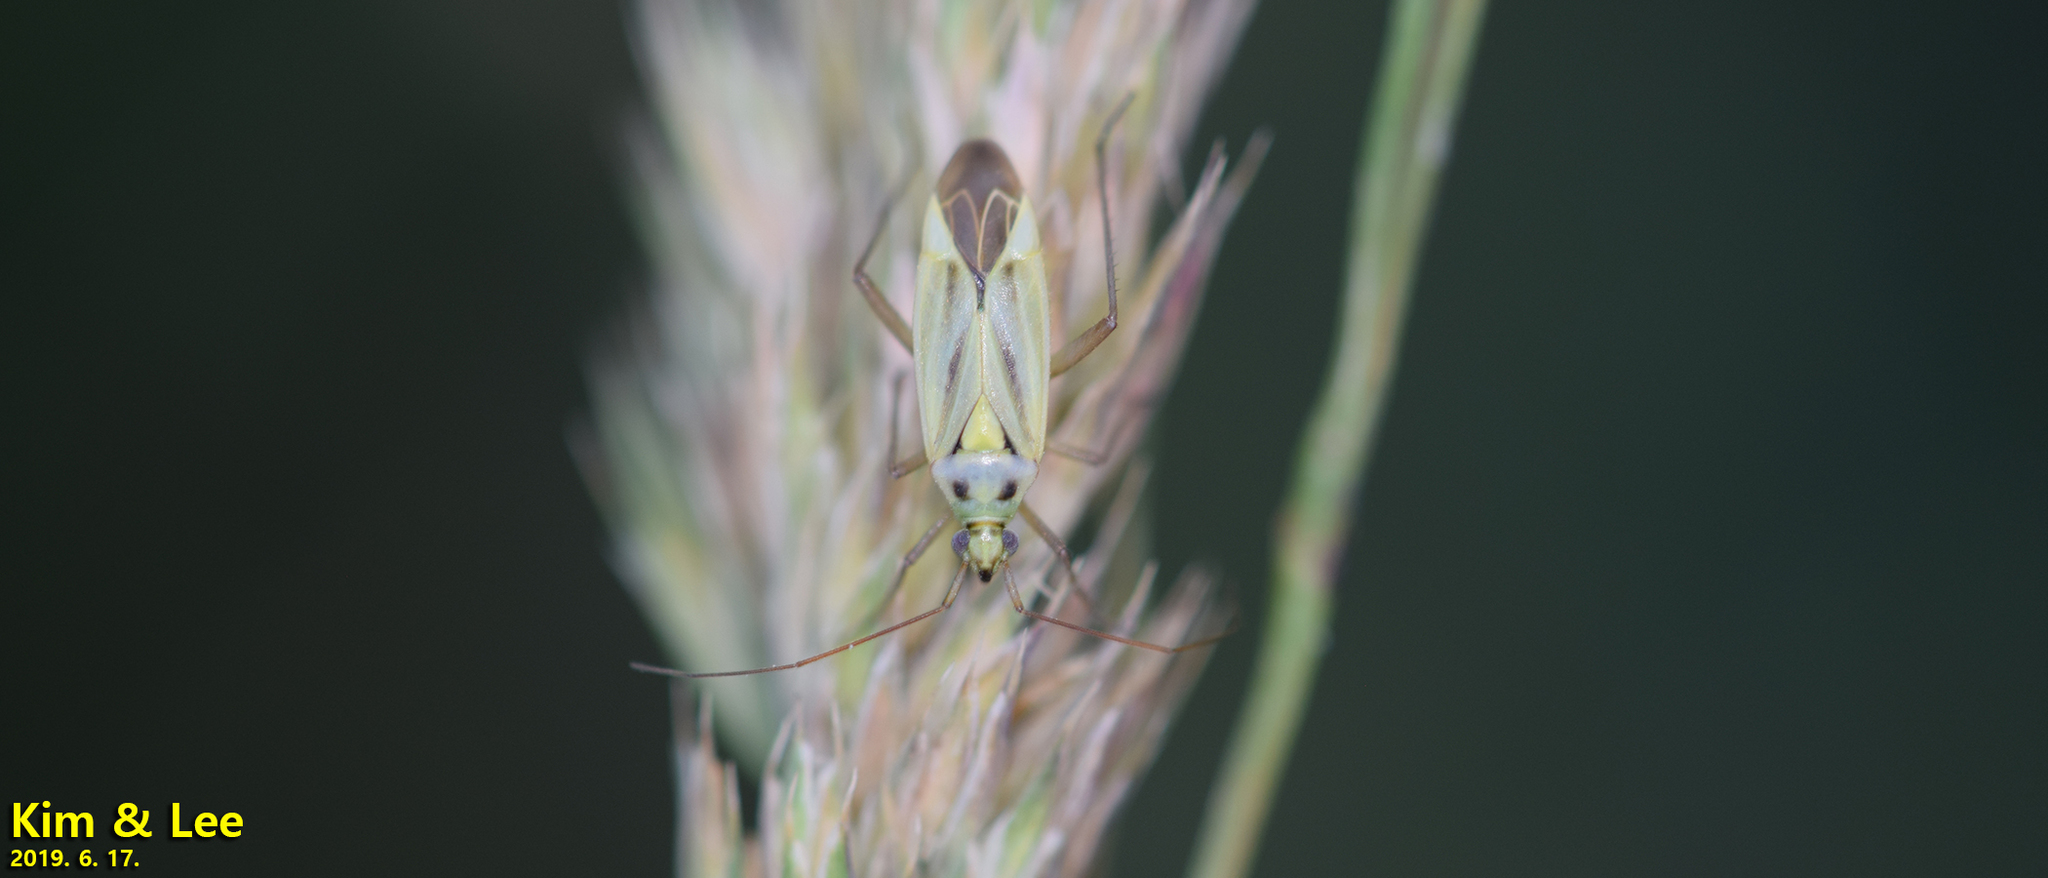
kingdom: Animalia
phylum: Arthropoda
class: Insecta
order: Hemiptera
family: Miridae
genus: Stenotus
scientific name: Stenotus binotatus
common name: Plant bug
